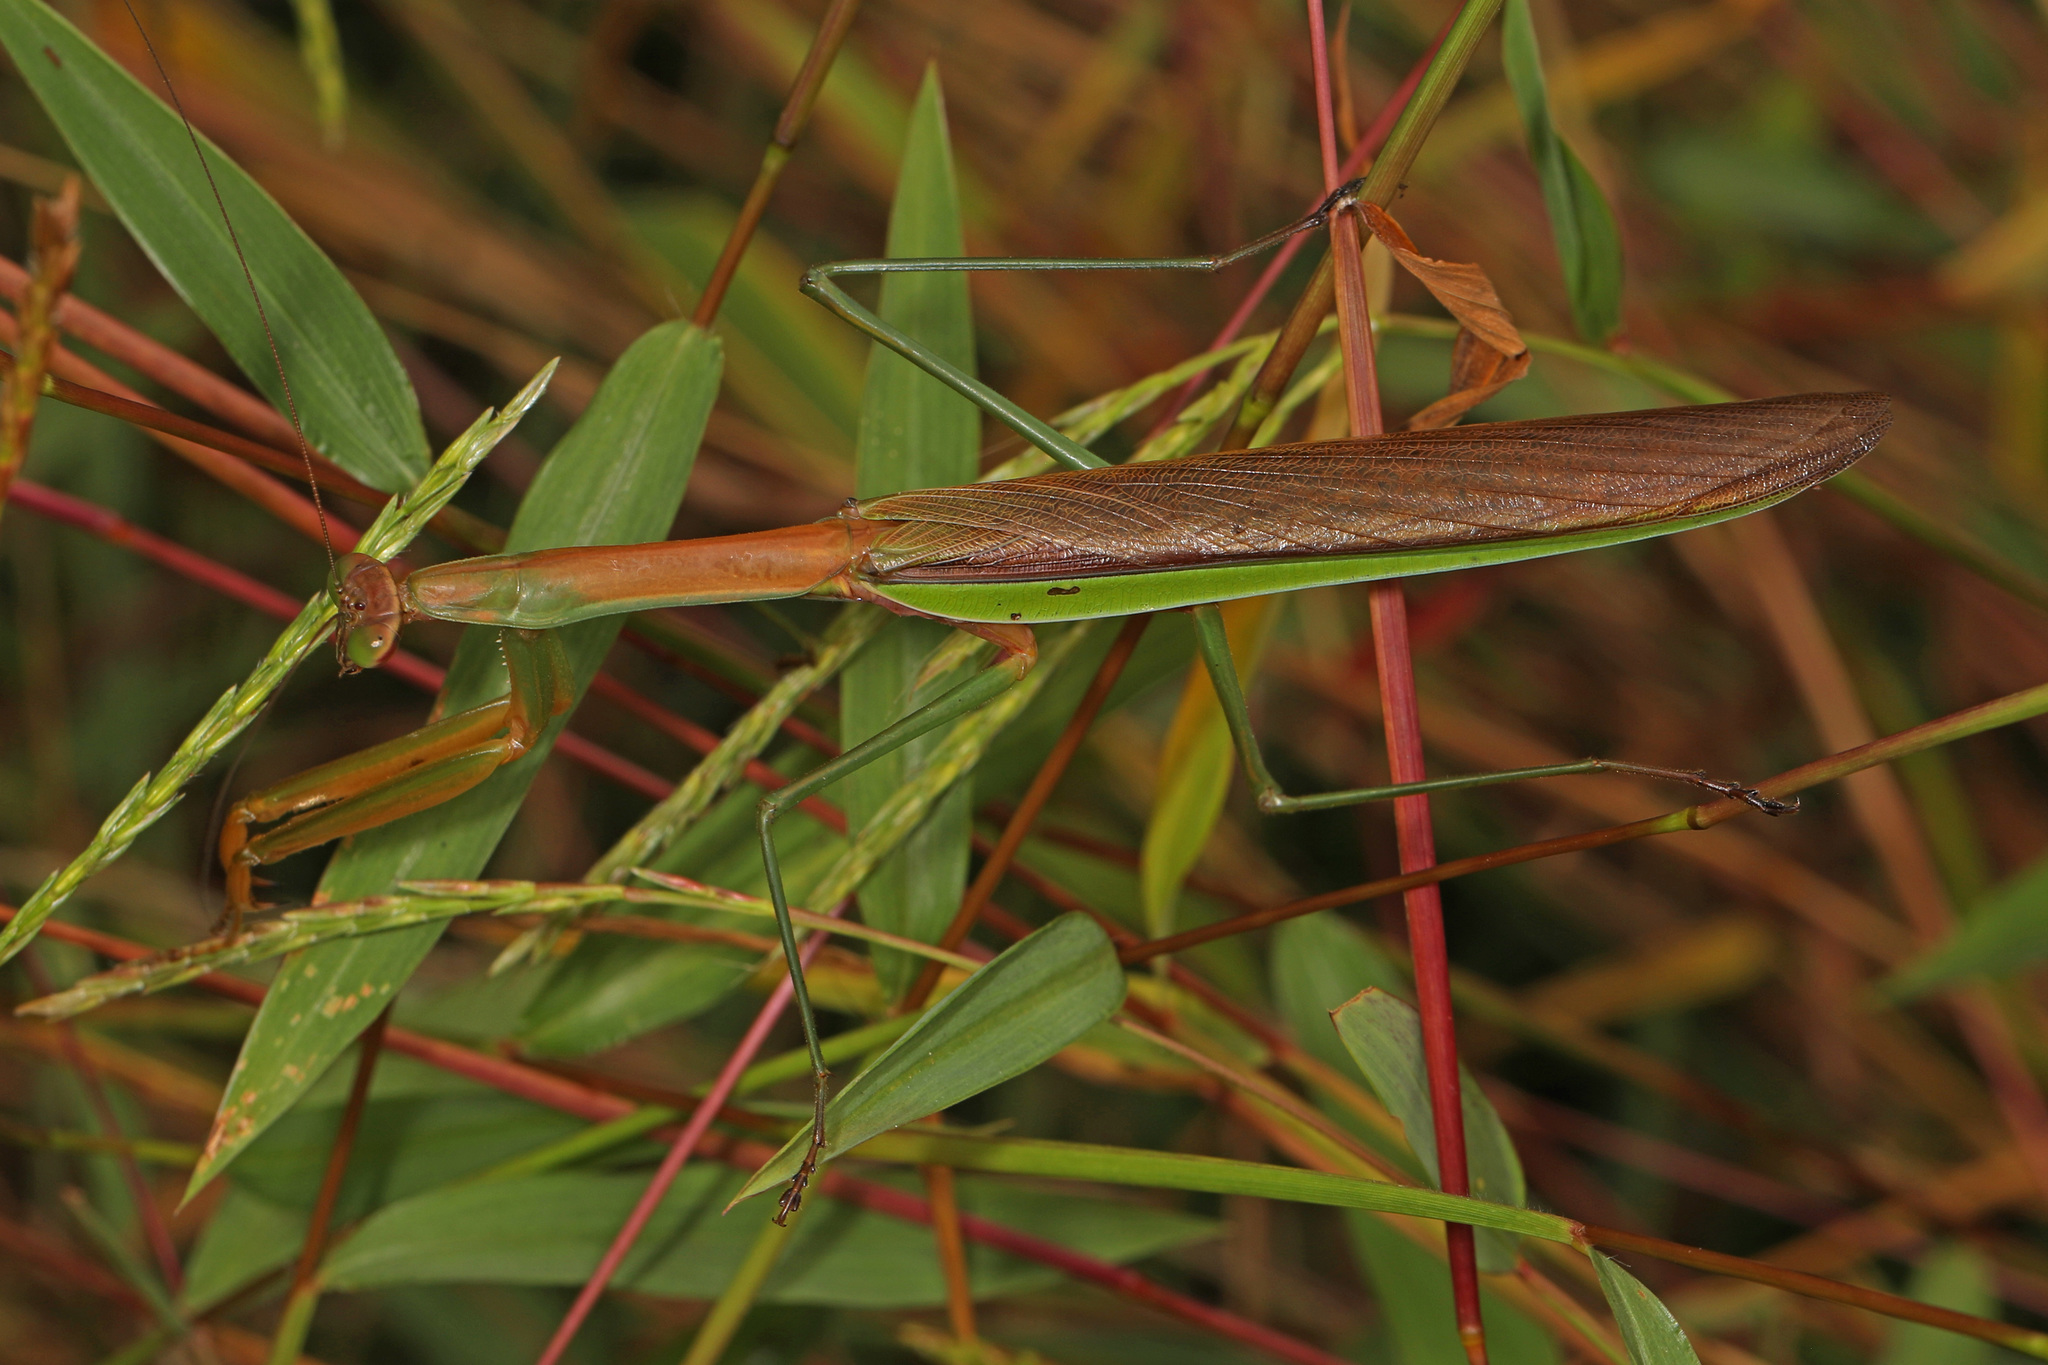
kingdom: Animalia
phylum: Arthropoda
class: Insecta
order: Mantodea
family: Mantidae
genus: Tenodera
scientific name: Tenodera angustipennis
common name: Asian mantis
